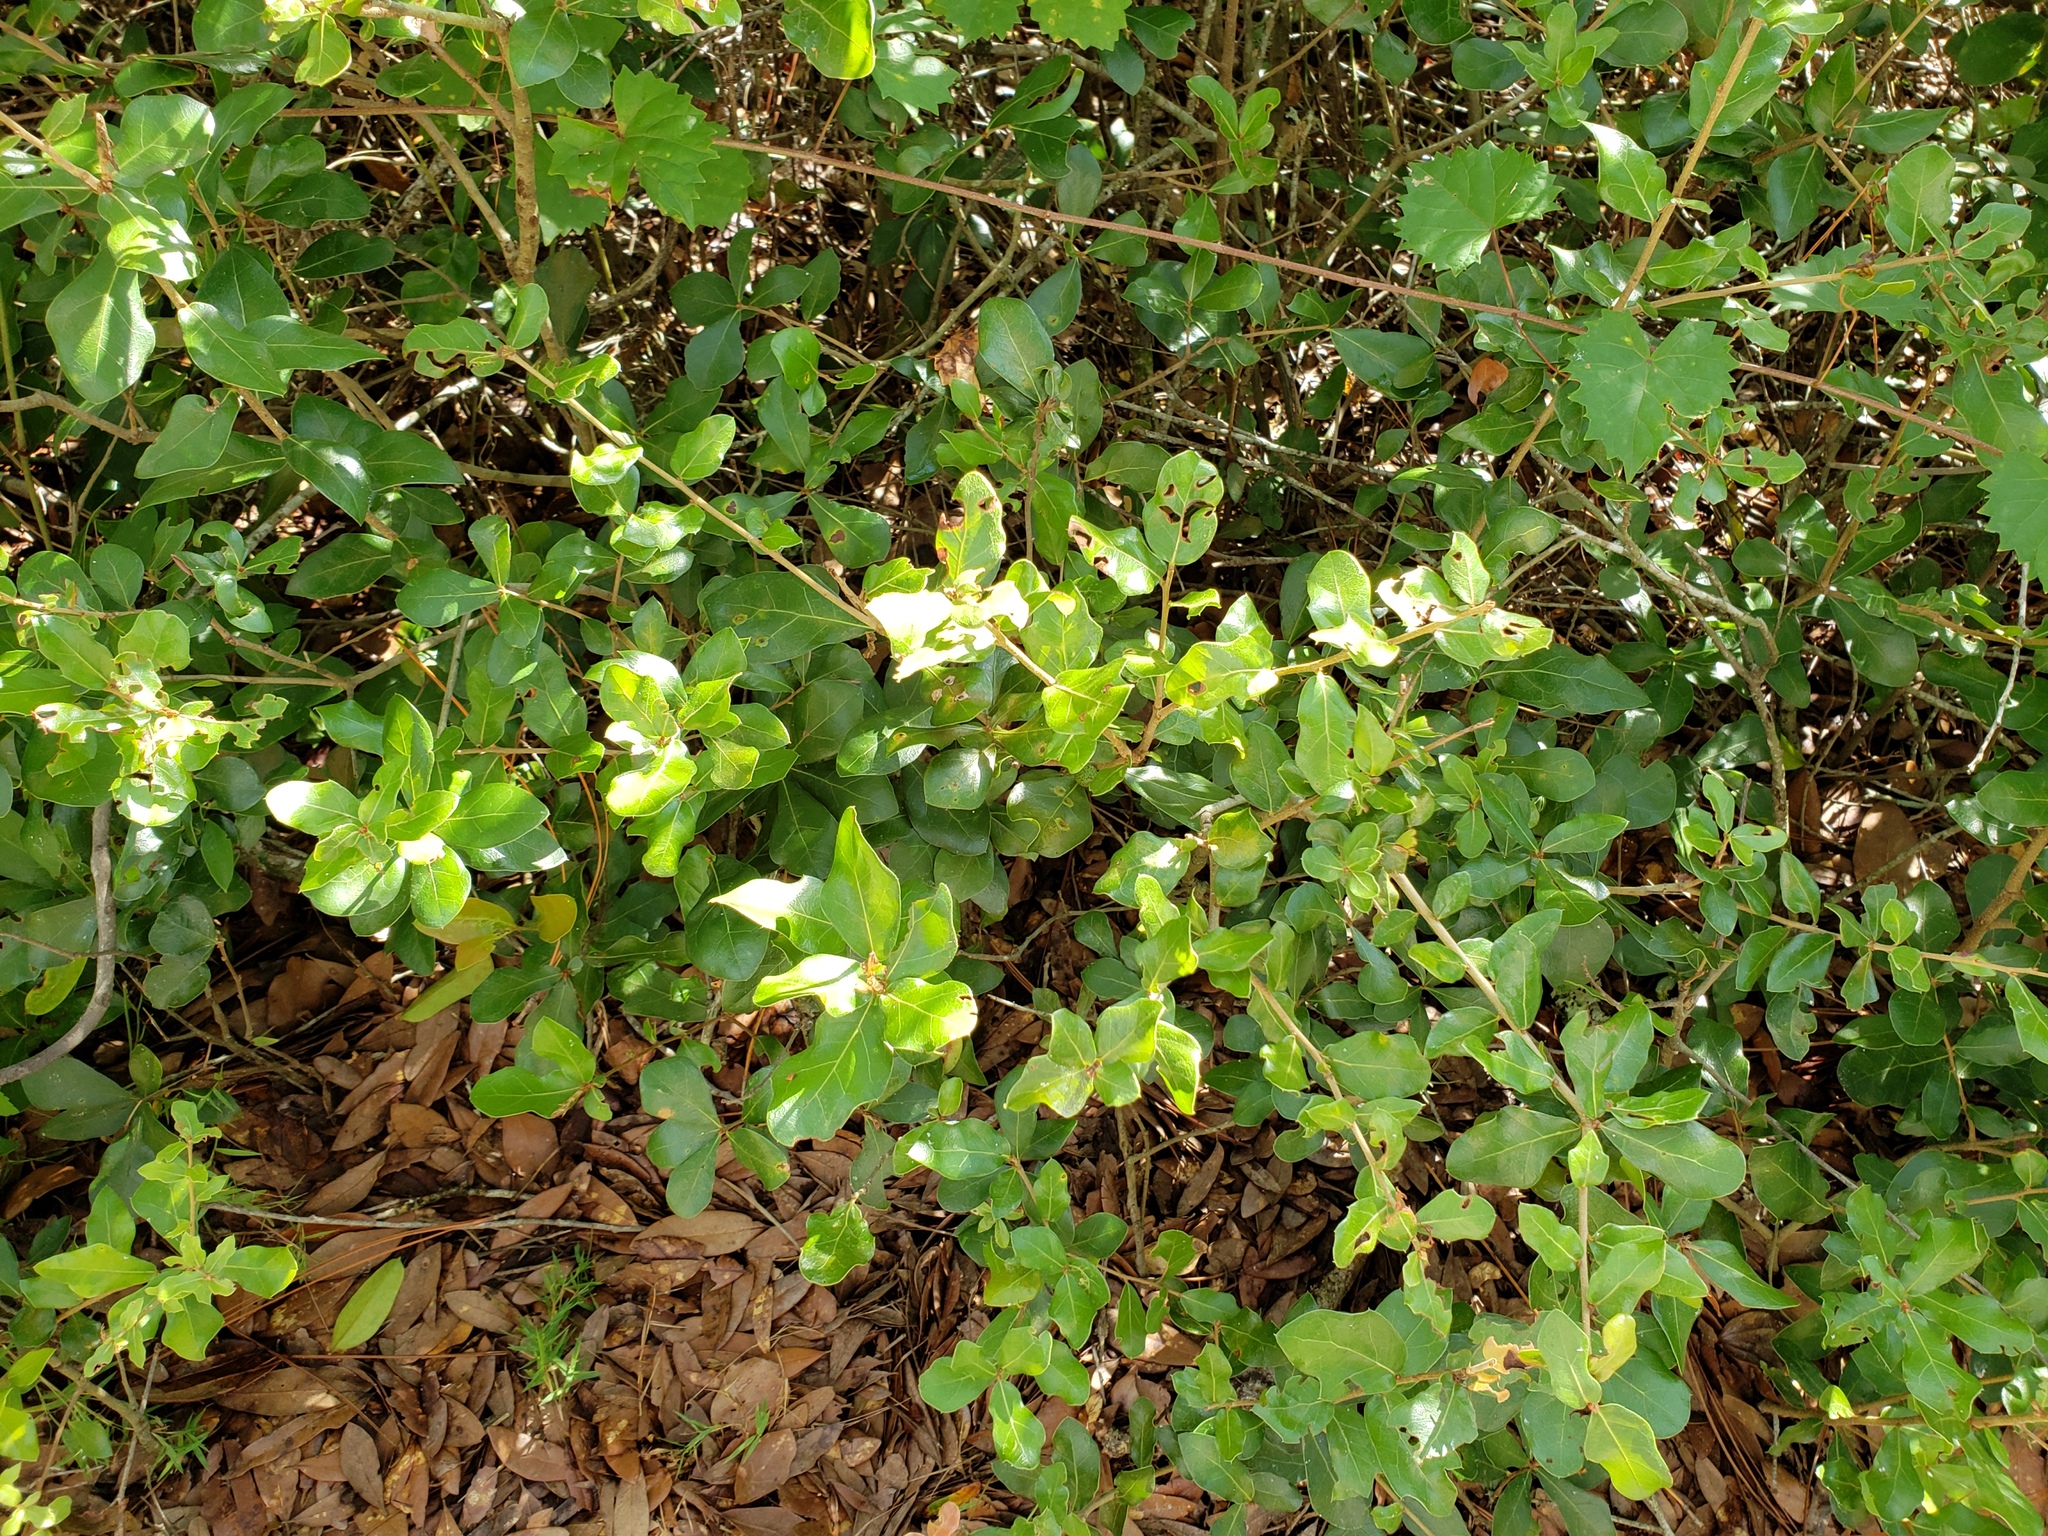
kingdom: Plantae
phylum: Tracheophyta
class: Magnoliopsida
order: Fagales
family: Fagaceae
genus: Quercus
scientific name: Quercus myrtifolia
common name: Myrtle oak
